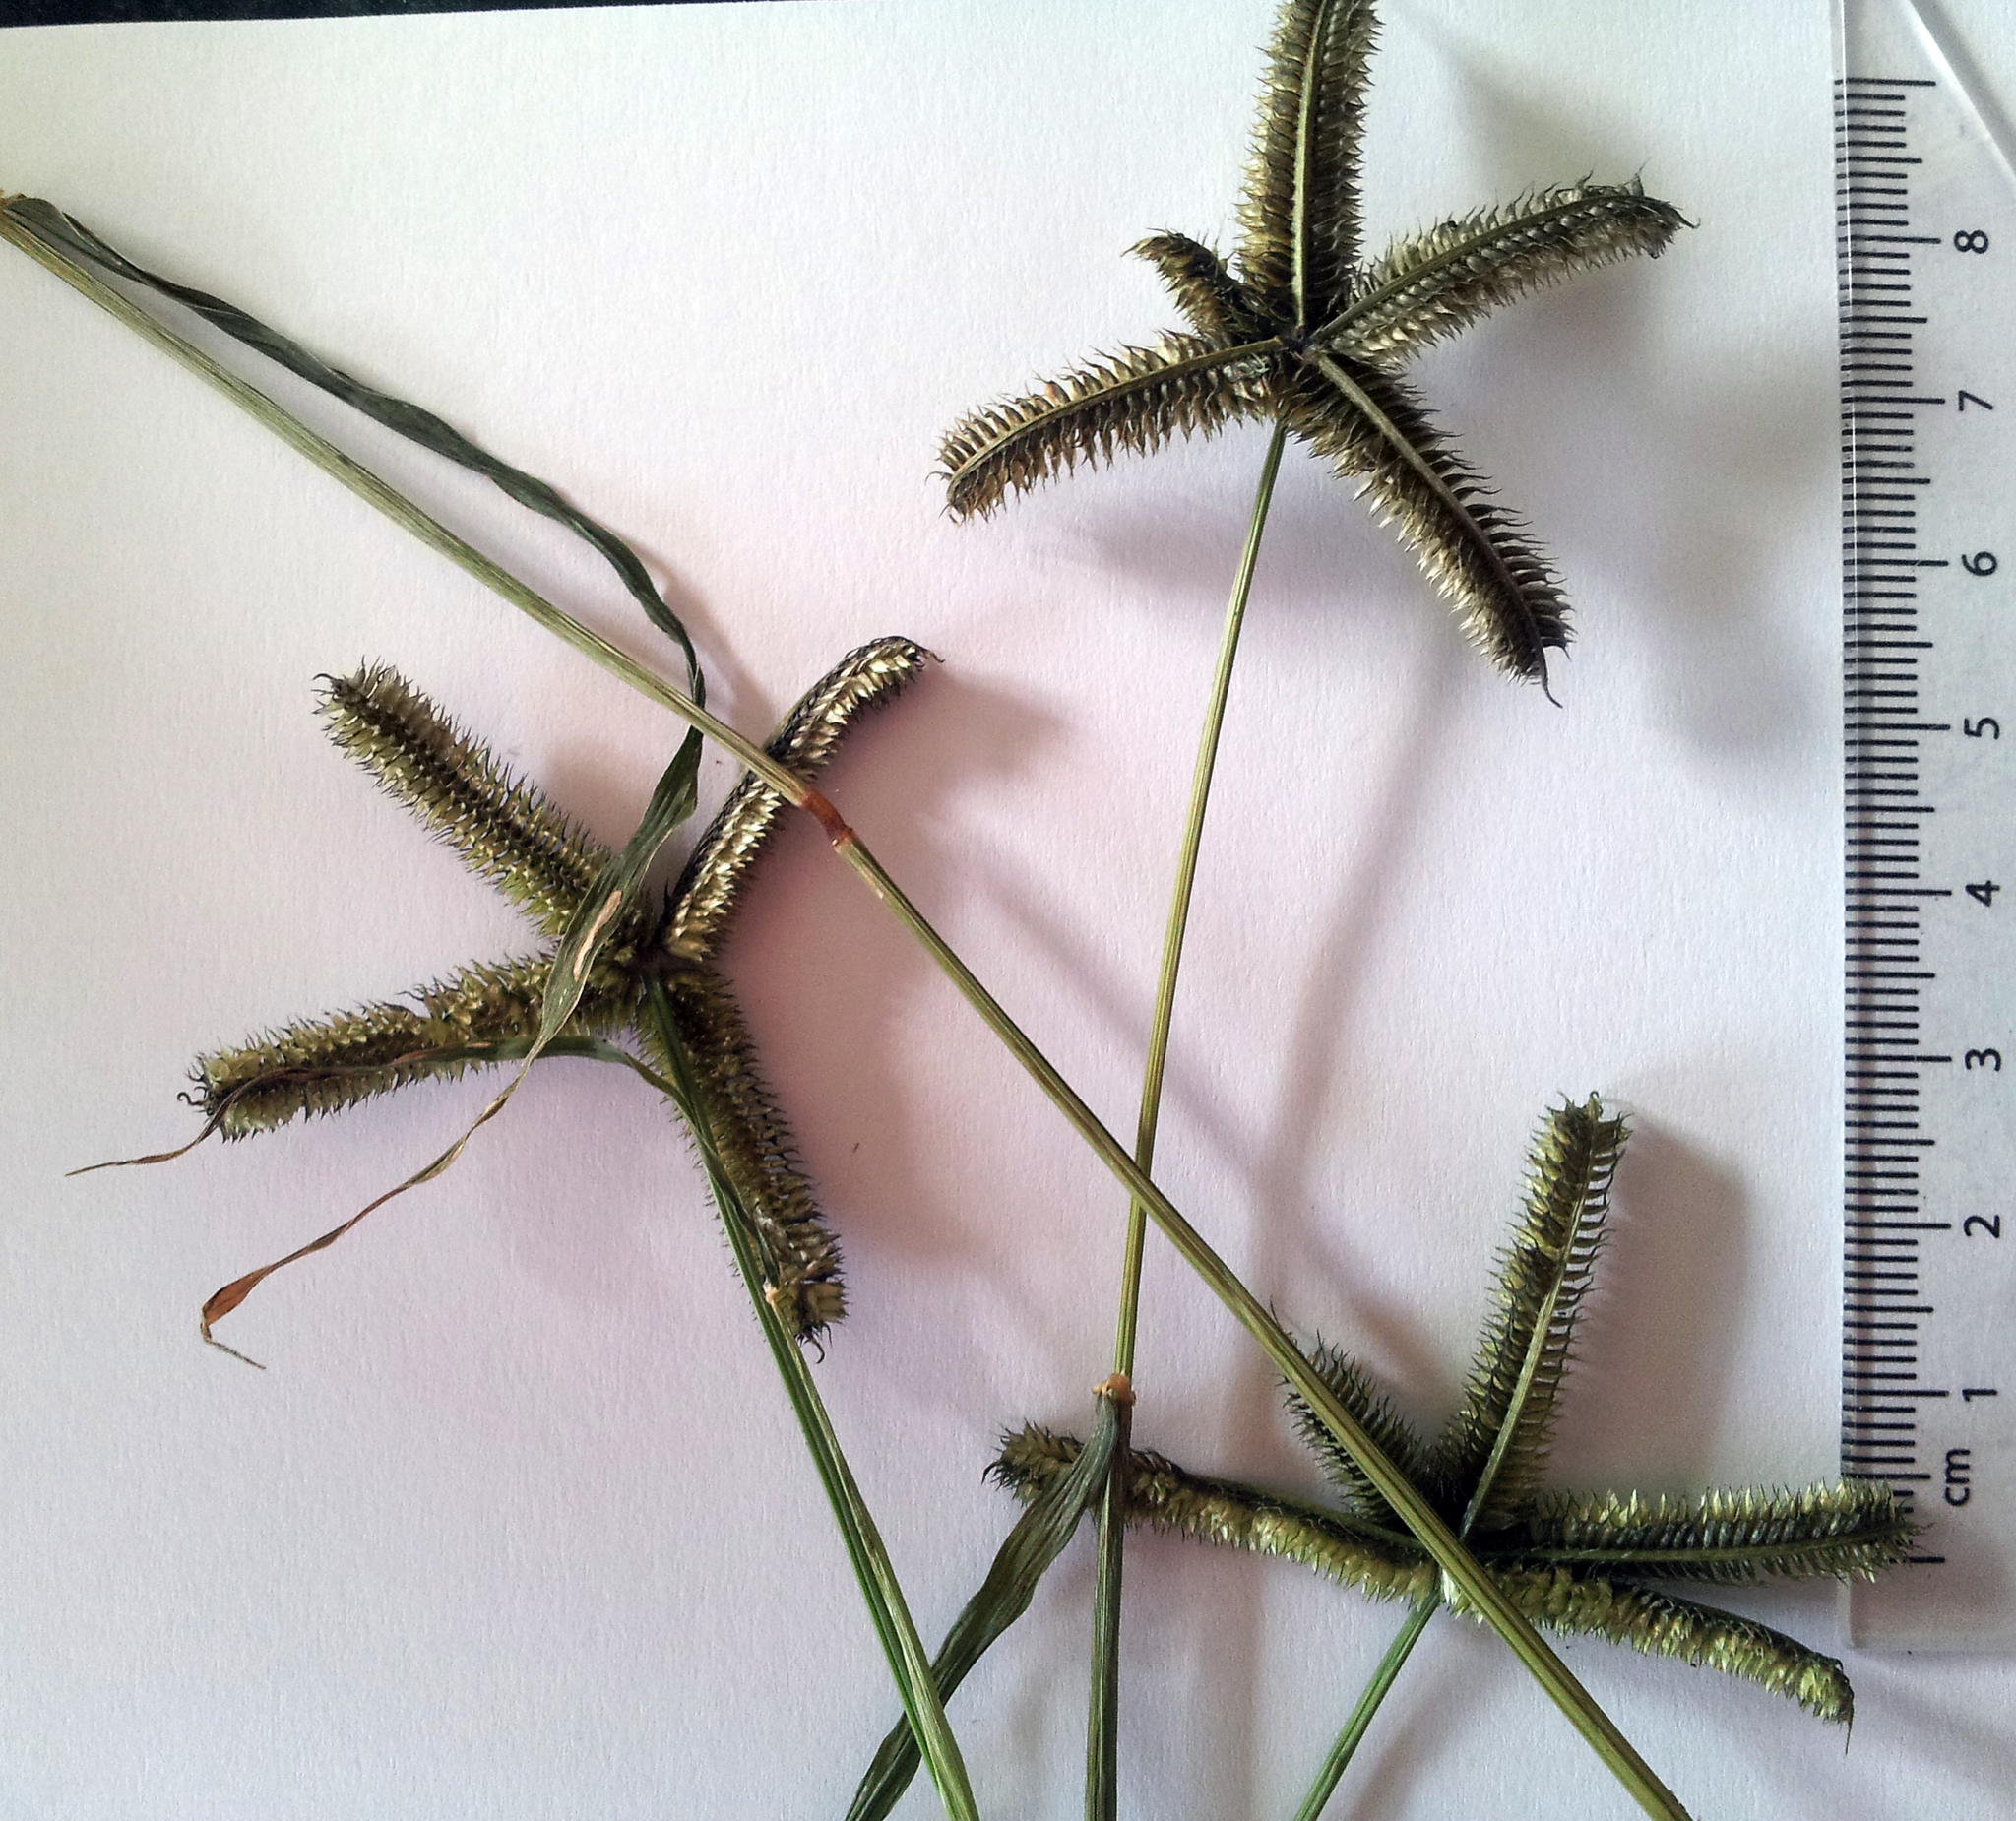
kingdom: Plantae
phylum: Tracheophyta
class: Liliopsida
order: Poales
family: Poaceae
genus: Dactyloctenium
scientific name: Dactyloctenium aegyptium
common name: Egyptian grass
